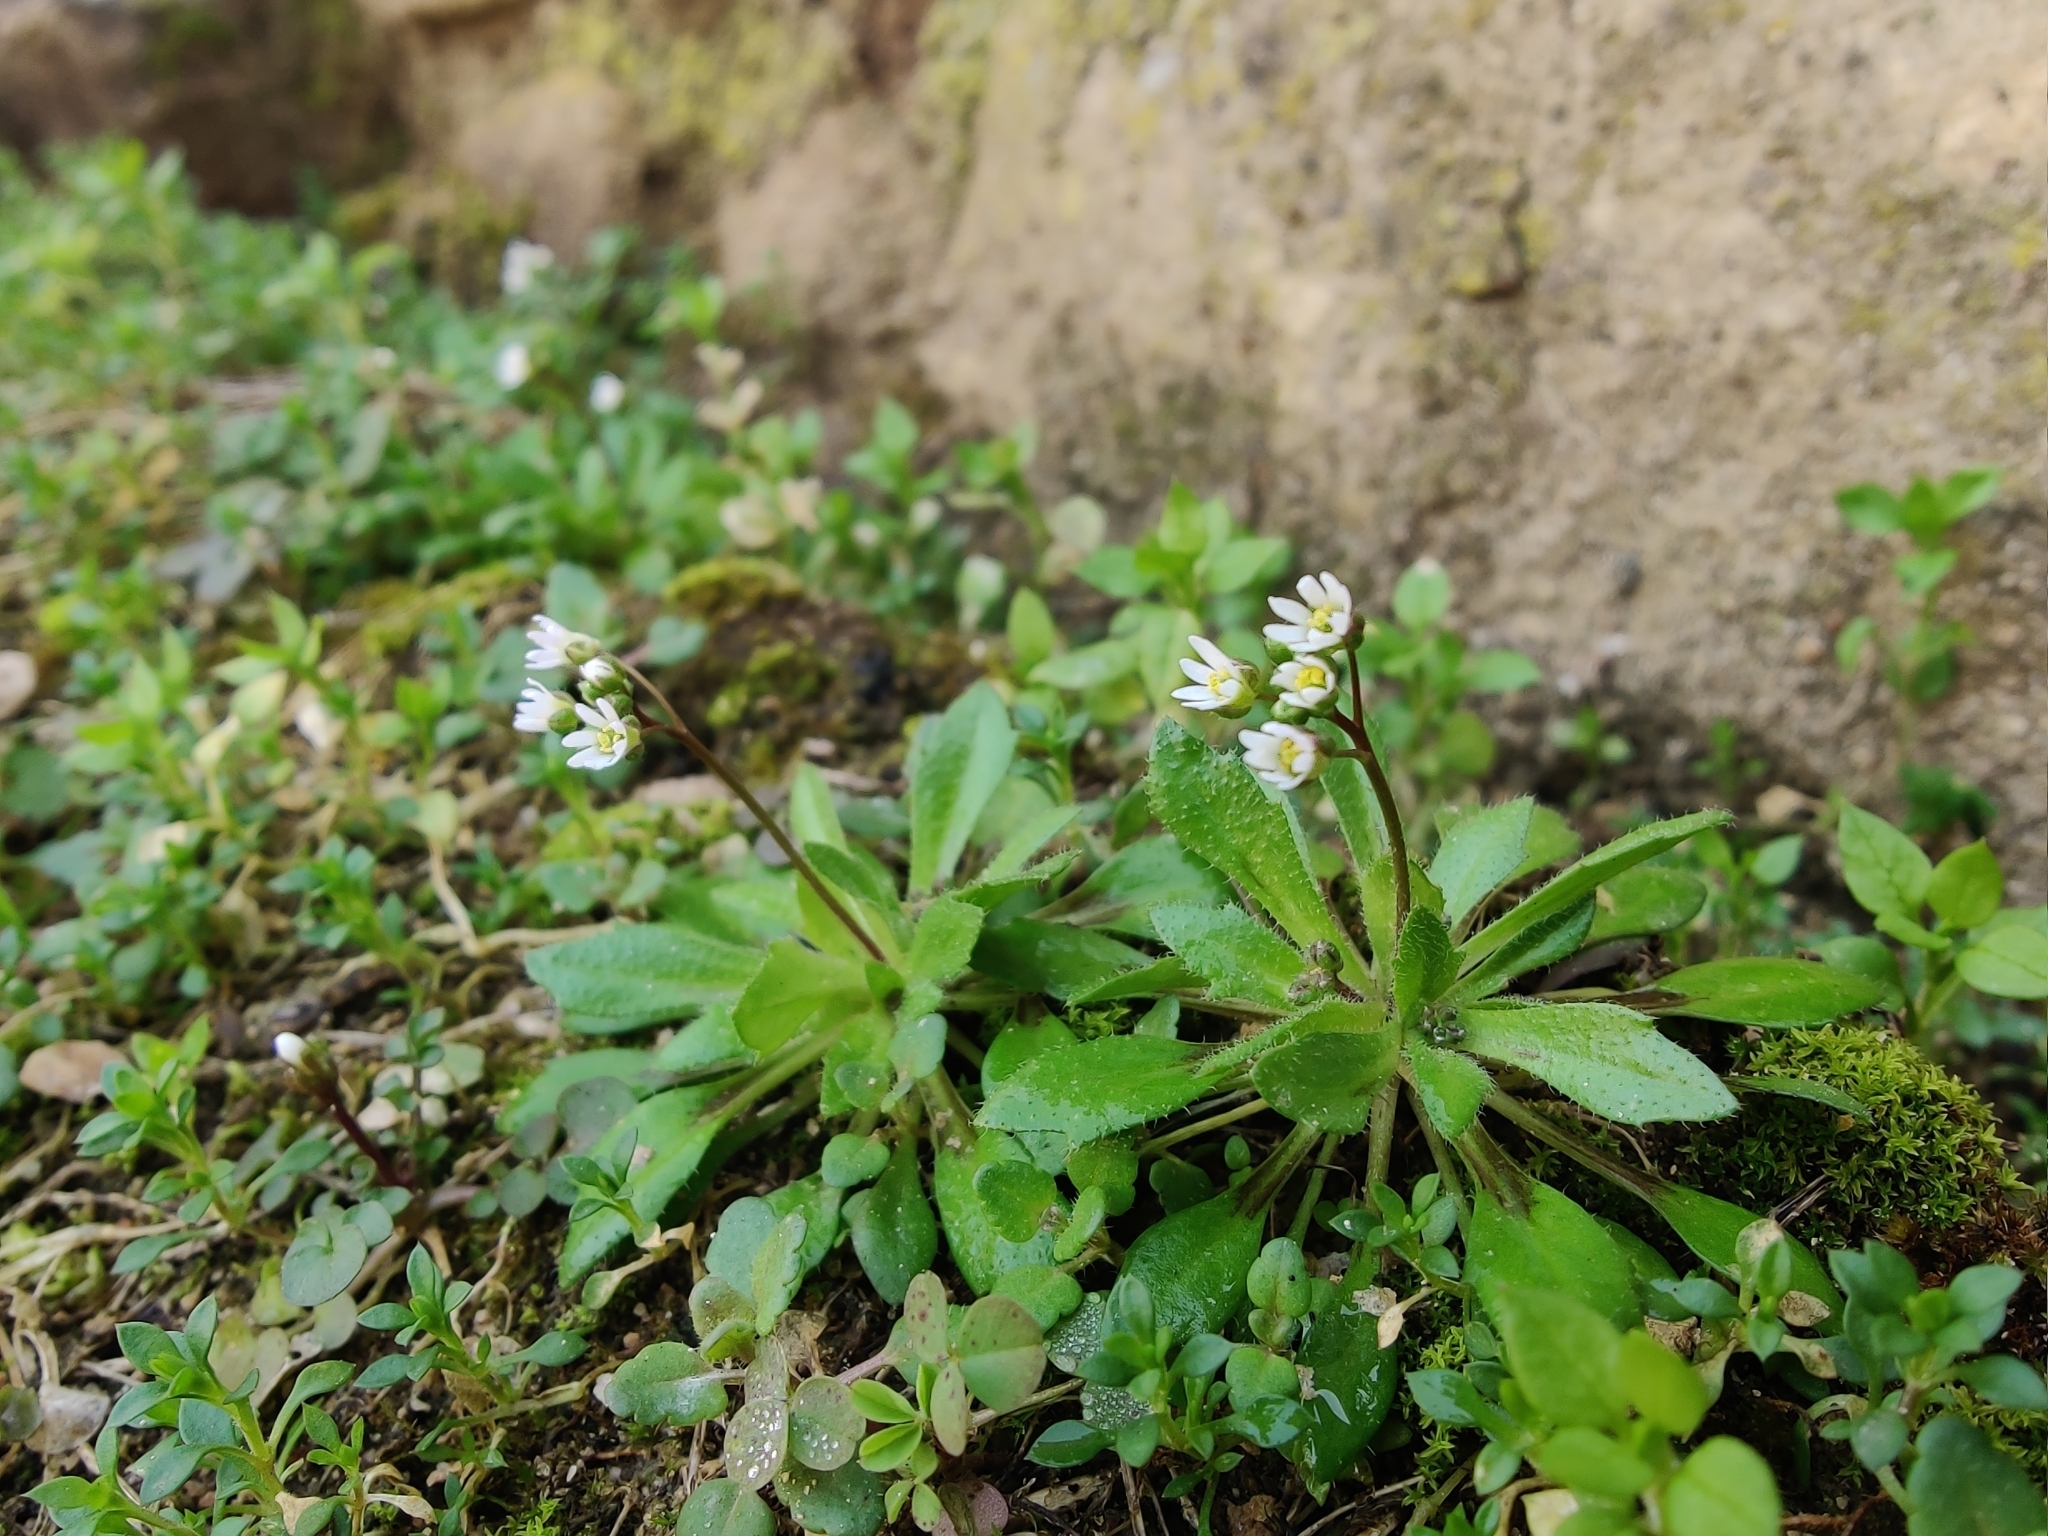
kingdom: Plantae
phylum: Tracheophyta
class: Magnoliopsida
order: Brassicales
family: Brassicaceae
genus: Draba
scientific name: Draba verna
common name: Spring draba
